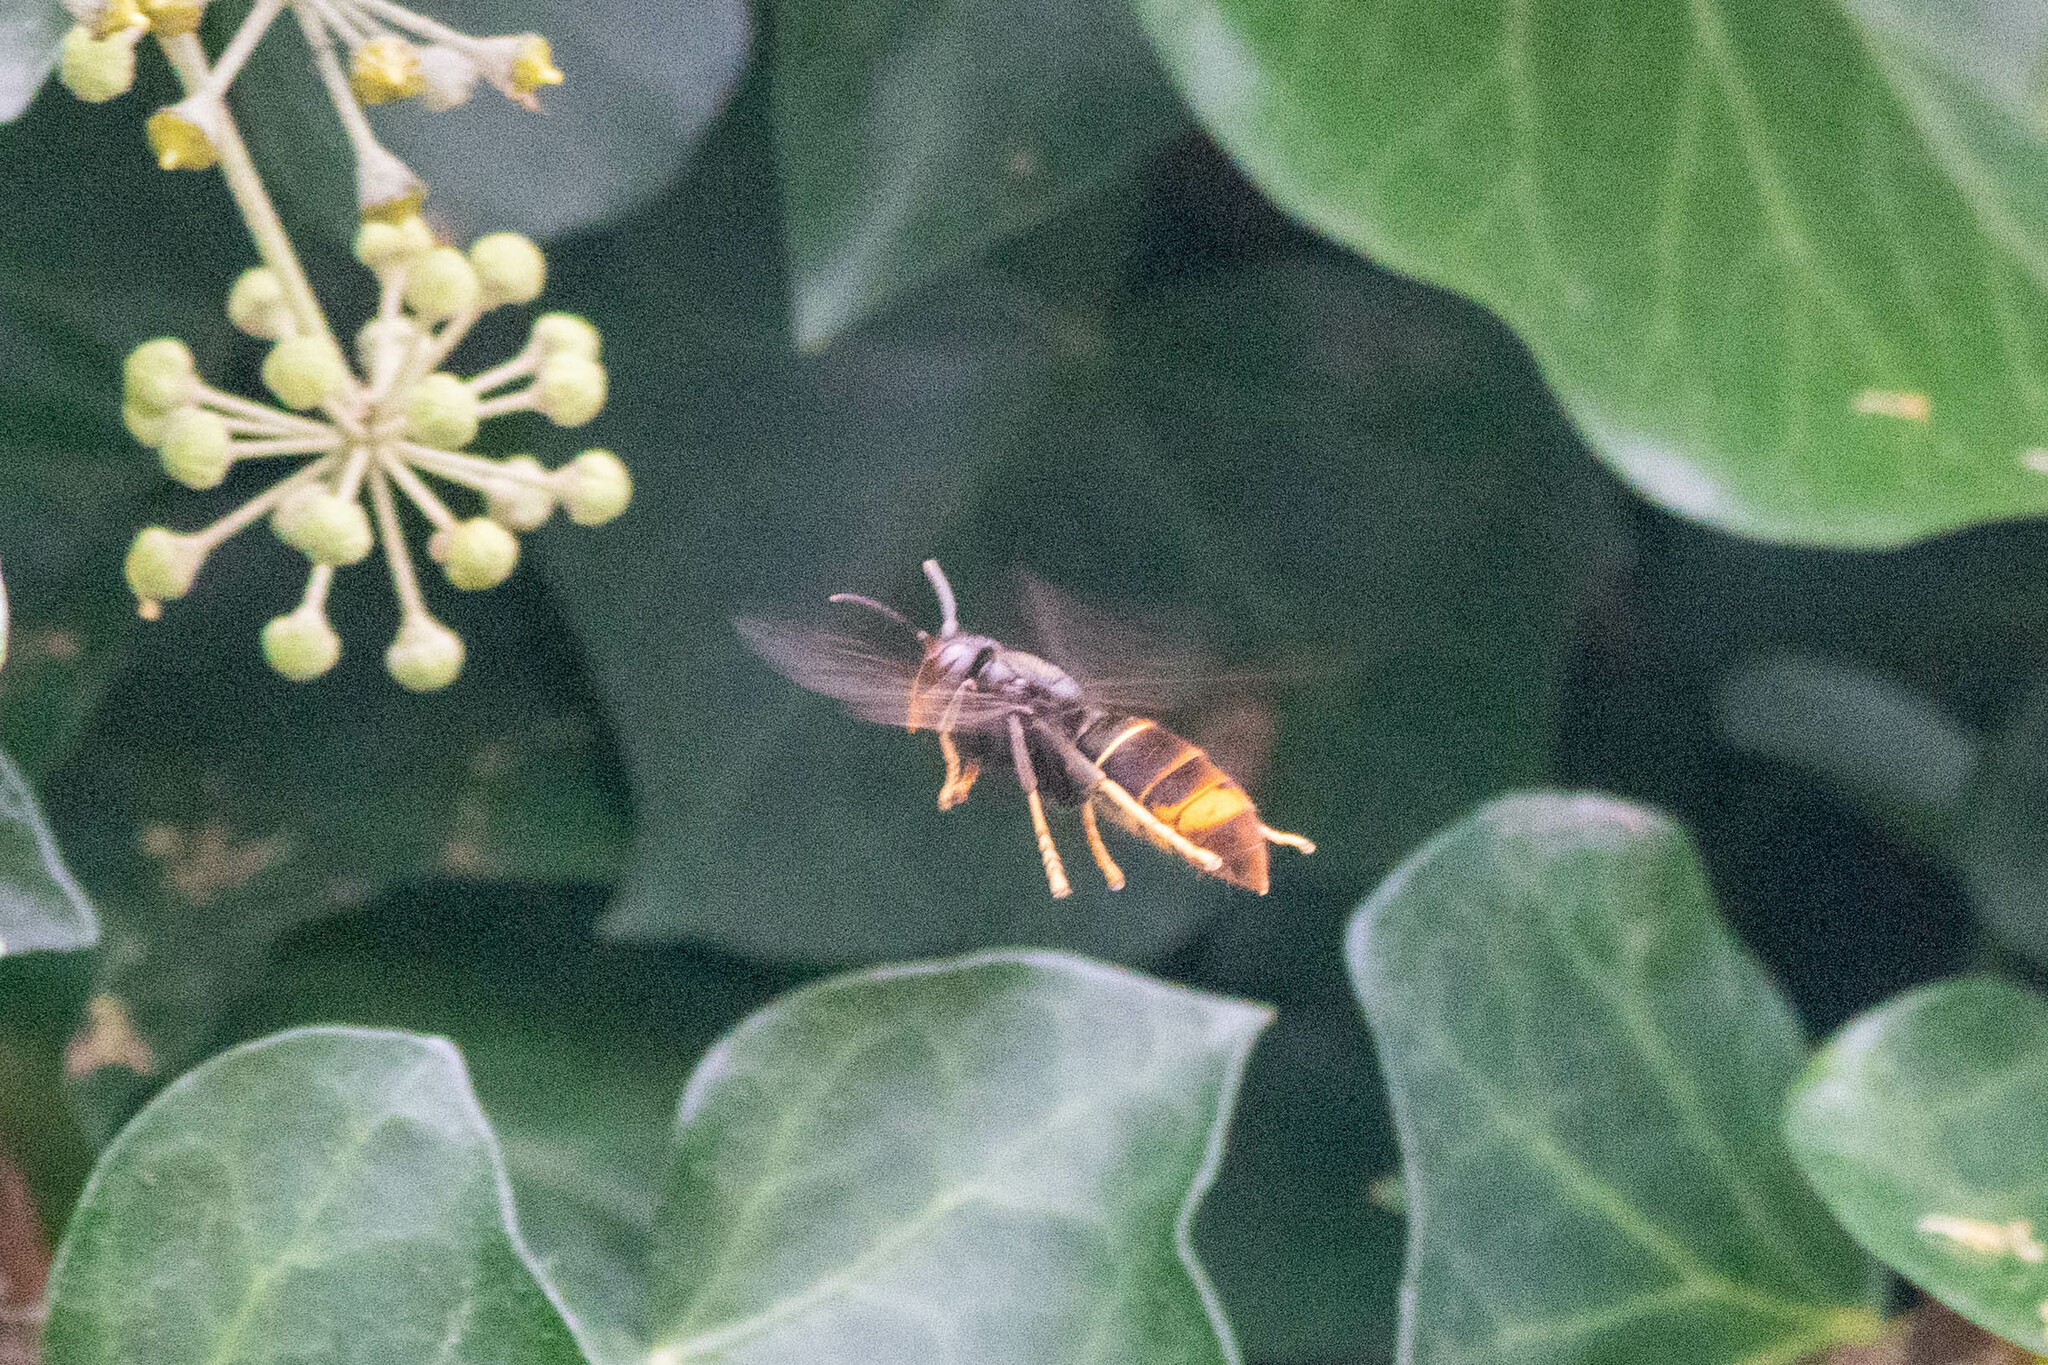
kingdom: Animalia
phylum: Arthropoda
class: Insecta
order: Hymenoptera
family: Vespidae
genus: Vespa
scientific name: Vespa velutina
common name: Asian hornet
